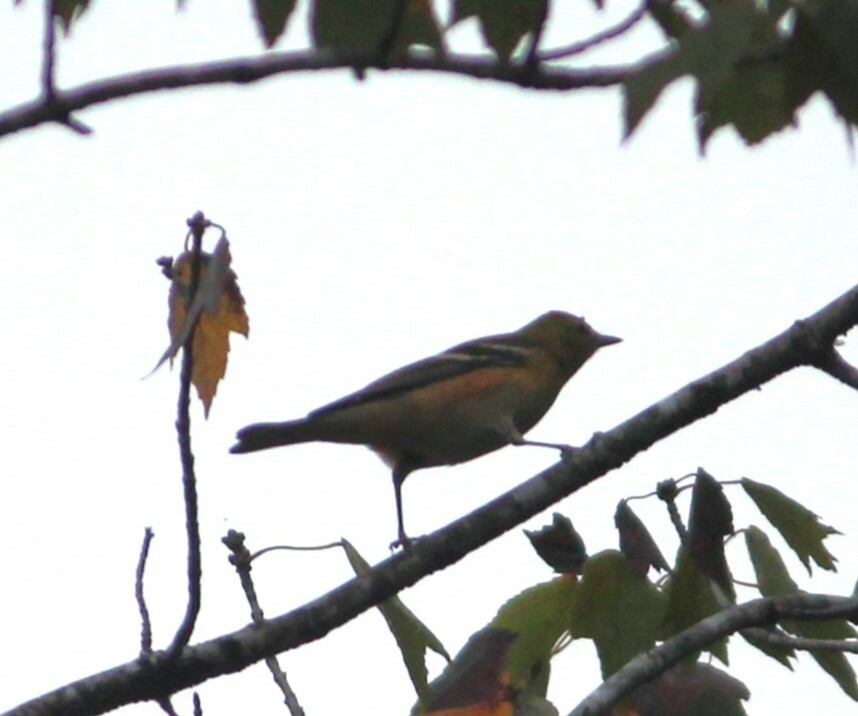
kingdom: Animalia
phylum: Chordata
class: Aves
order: Passeriformes
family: Parulidae
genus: Setophaga
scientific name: Setophaga castanea
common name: Bay-breasted warbler
